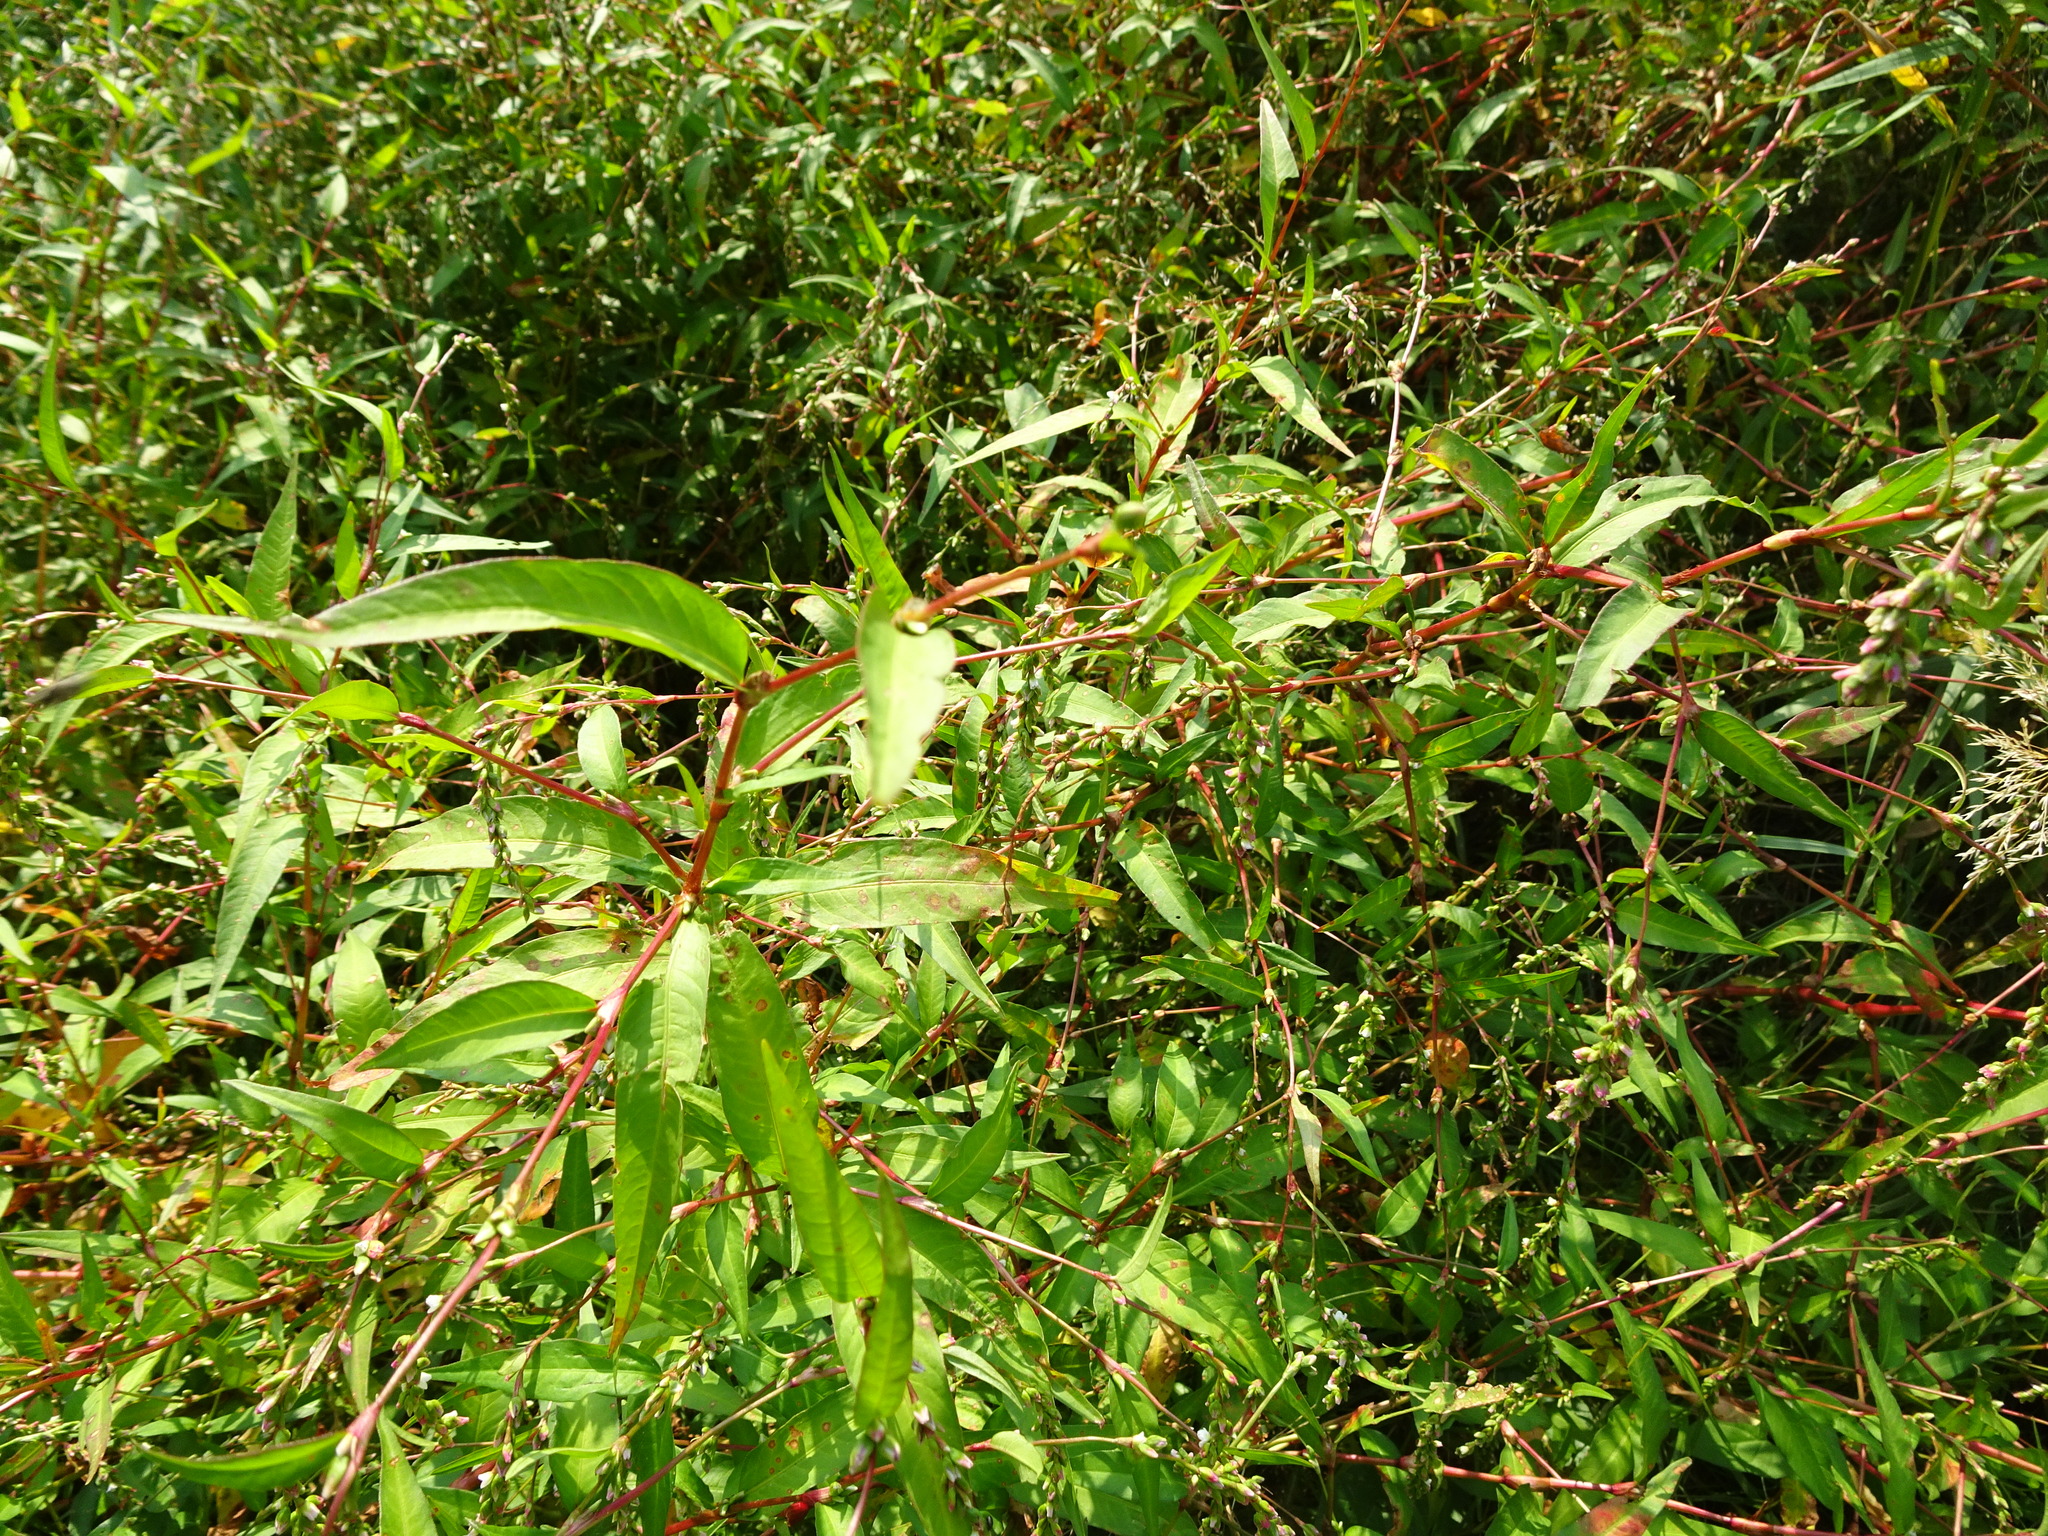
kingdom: Plantae
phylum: Tracheophyta
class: Magnoliopsida
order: Caryophyllales
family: Polygonaceae
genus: Persicaria
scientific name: Persicaria mitis
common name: Tasteless water-pepper
